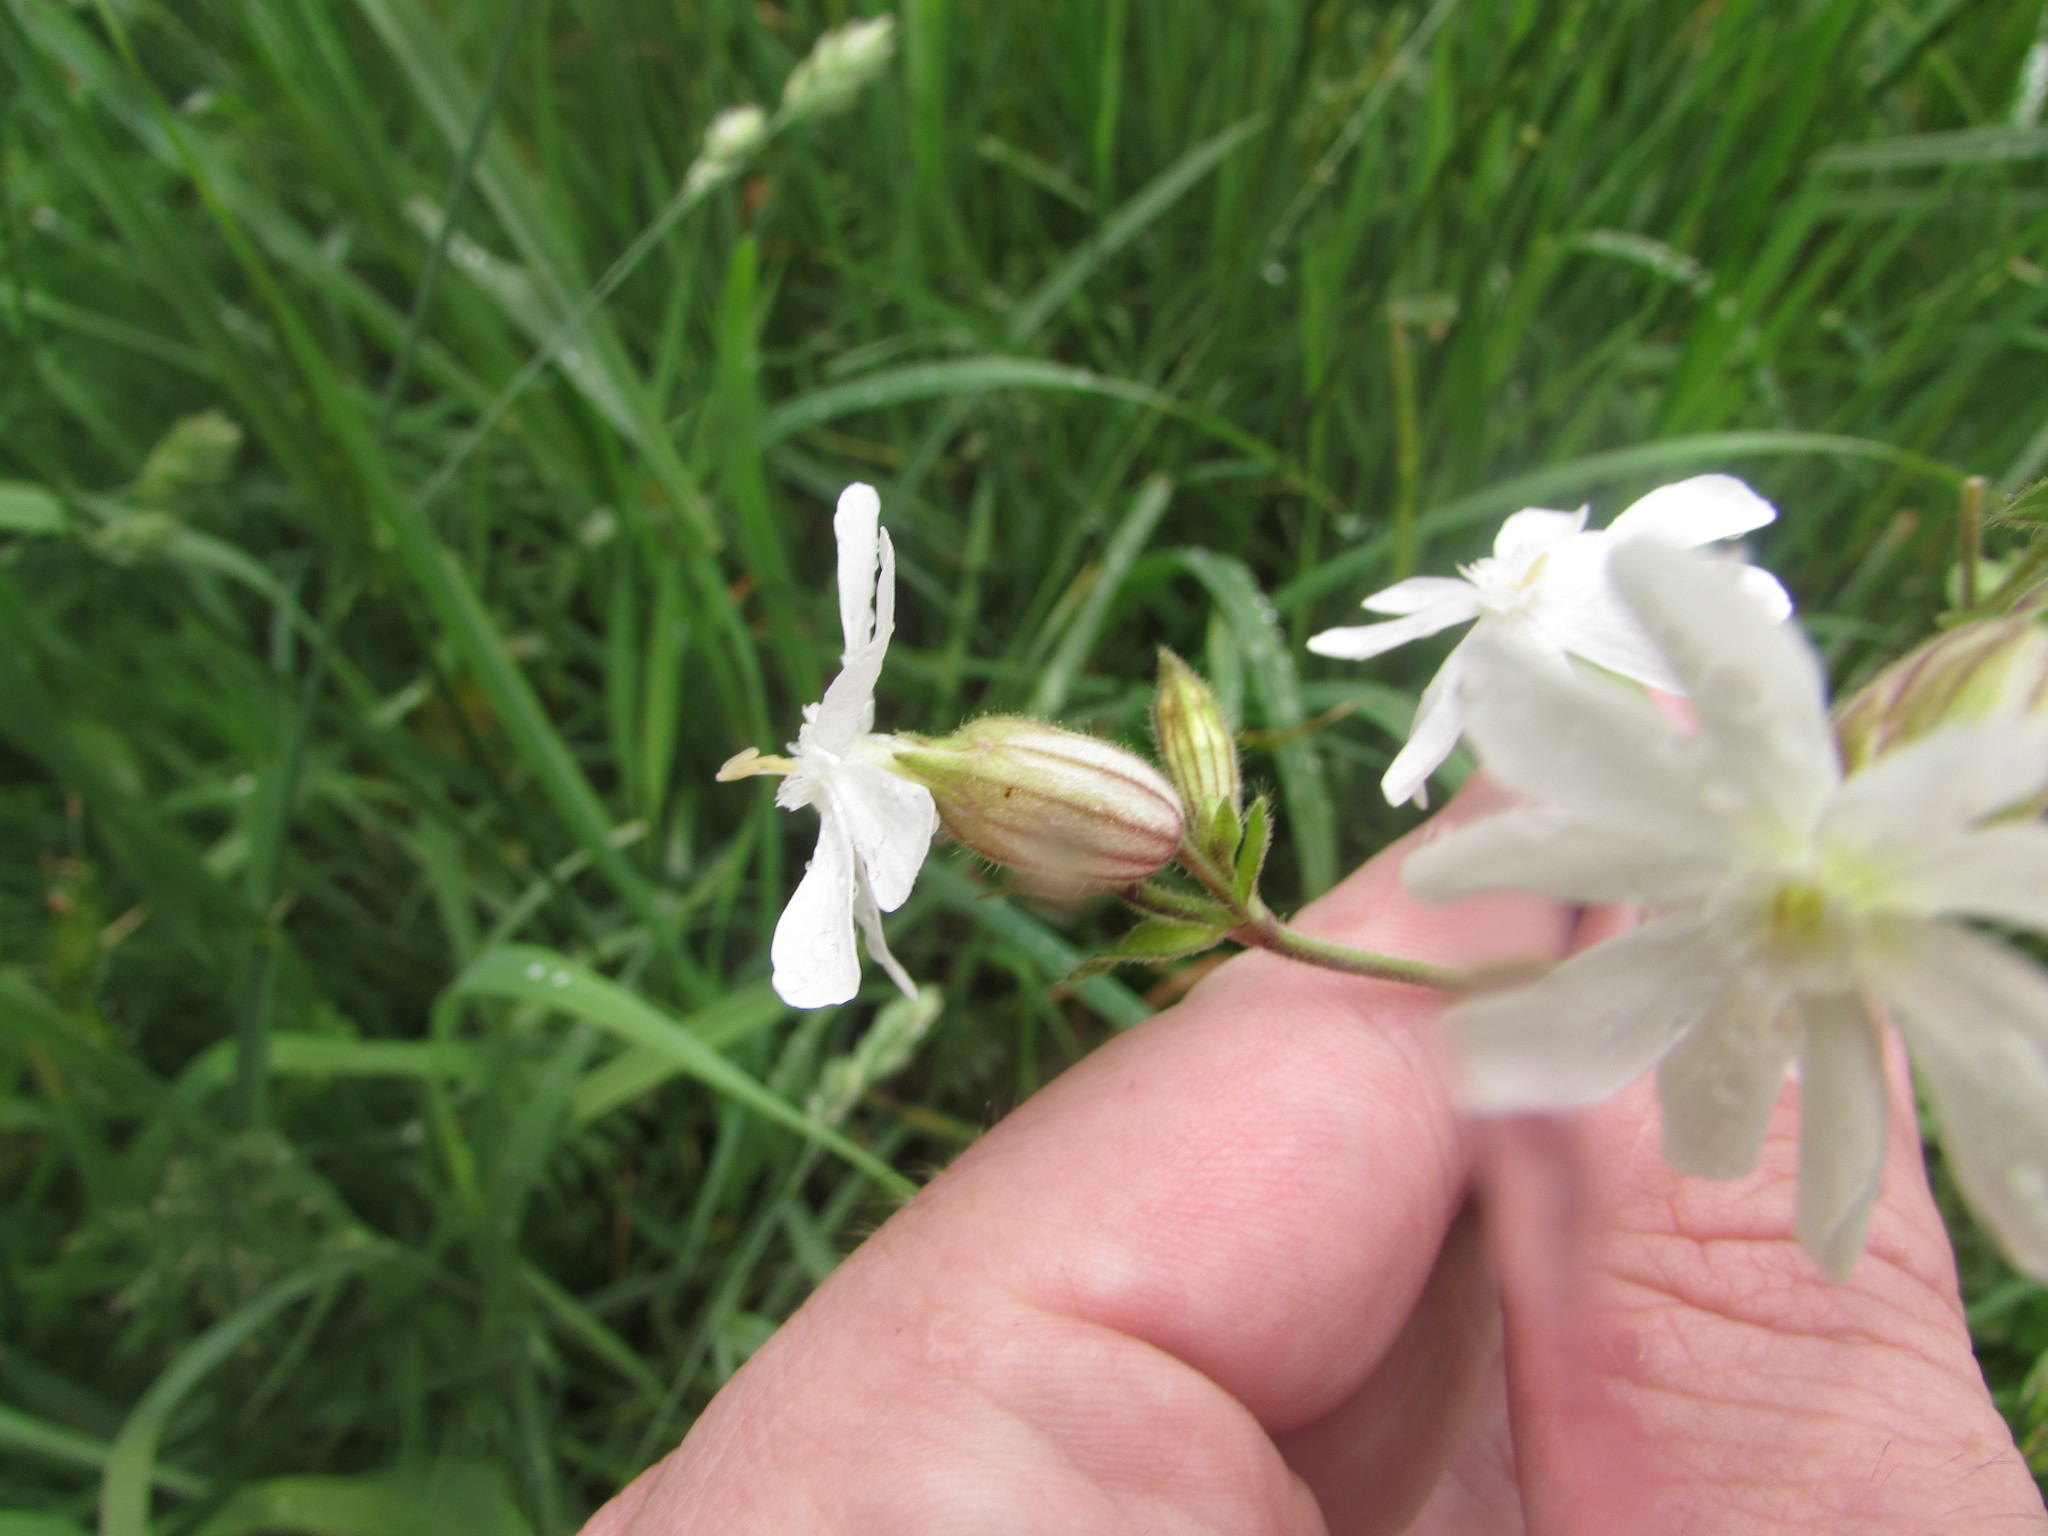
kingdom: Plantae
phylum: Tracheophyta
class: Magnoliopsida
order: Caryophyllales
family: Caryophyllaceae
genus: Silene
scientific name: Silene latifolia
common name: White campion
